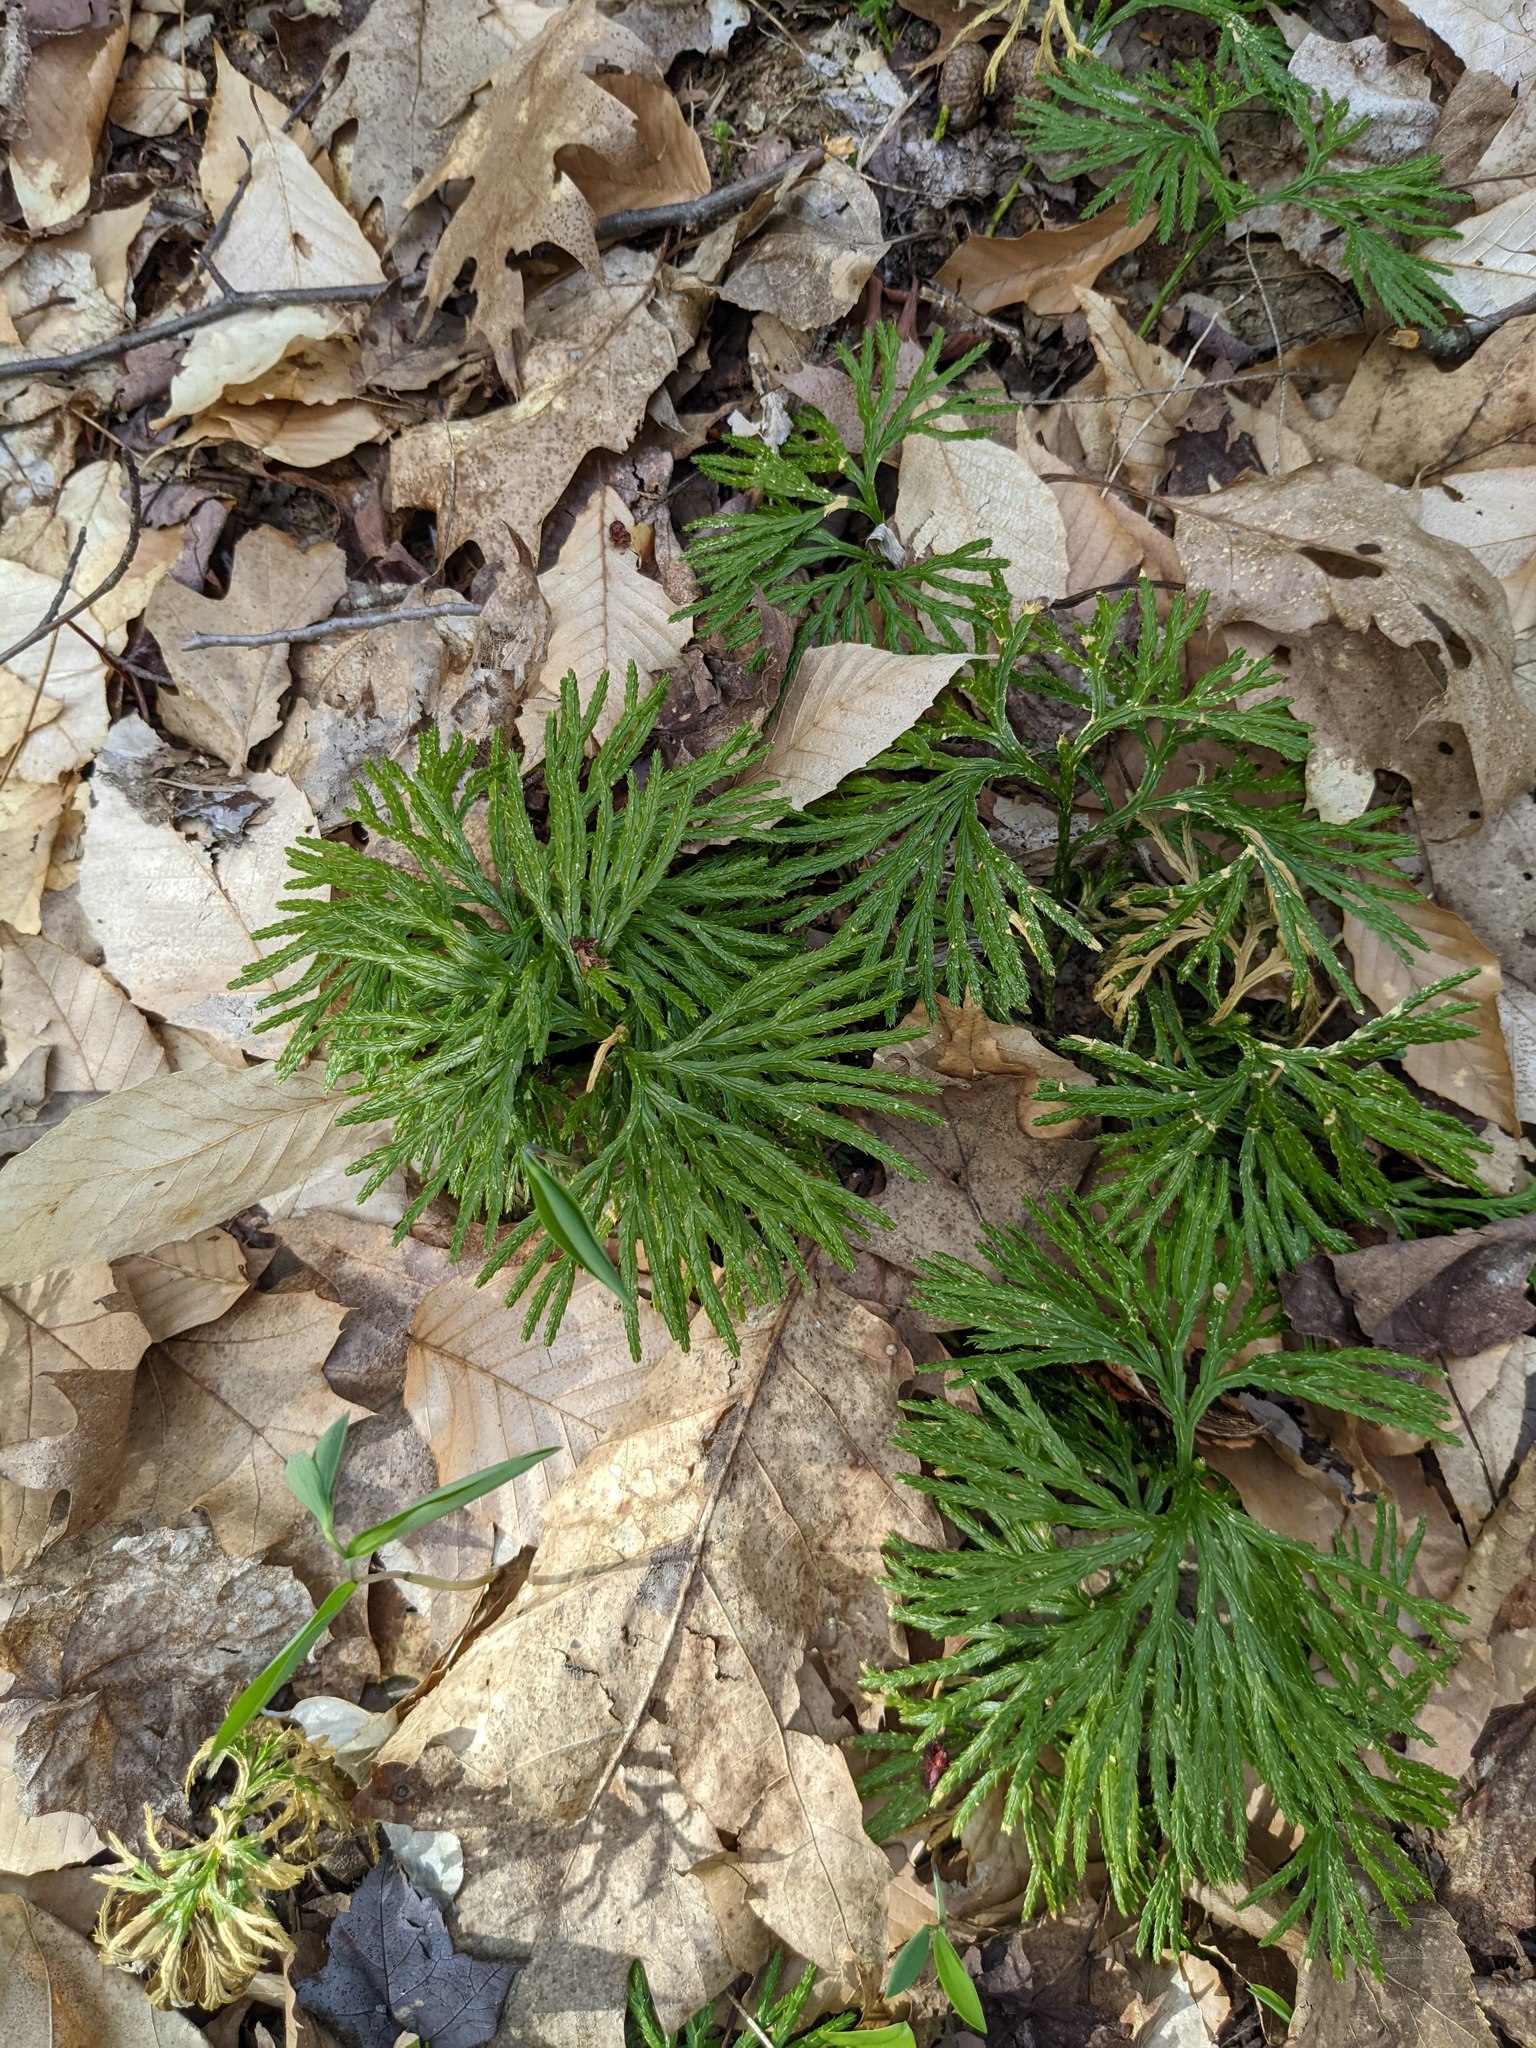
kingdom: Plantae
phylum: Tracheophyta
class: Lycopodiopsida
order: Lycopodiales
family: Lycopodiaceae
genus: Diphasiastrum
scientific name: Diphasiastrum digitatum
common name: Southern running-pine
